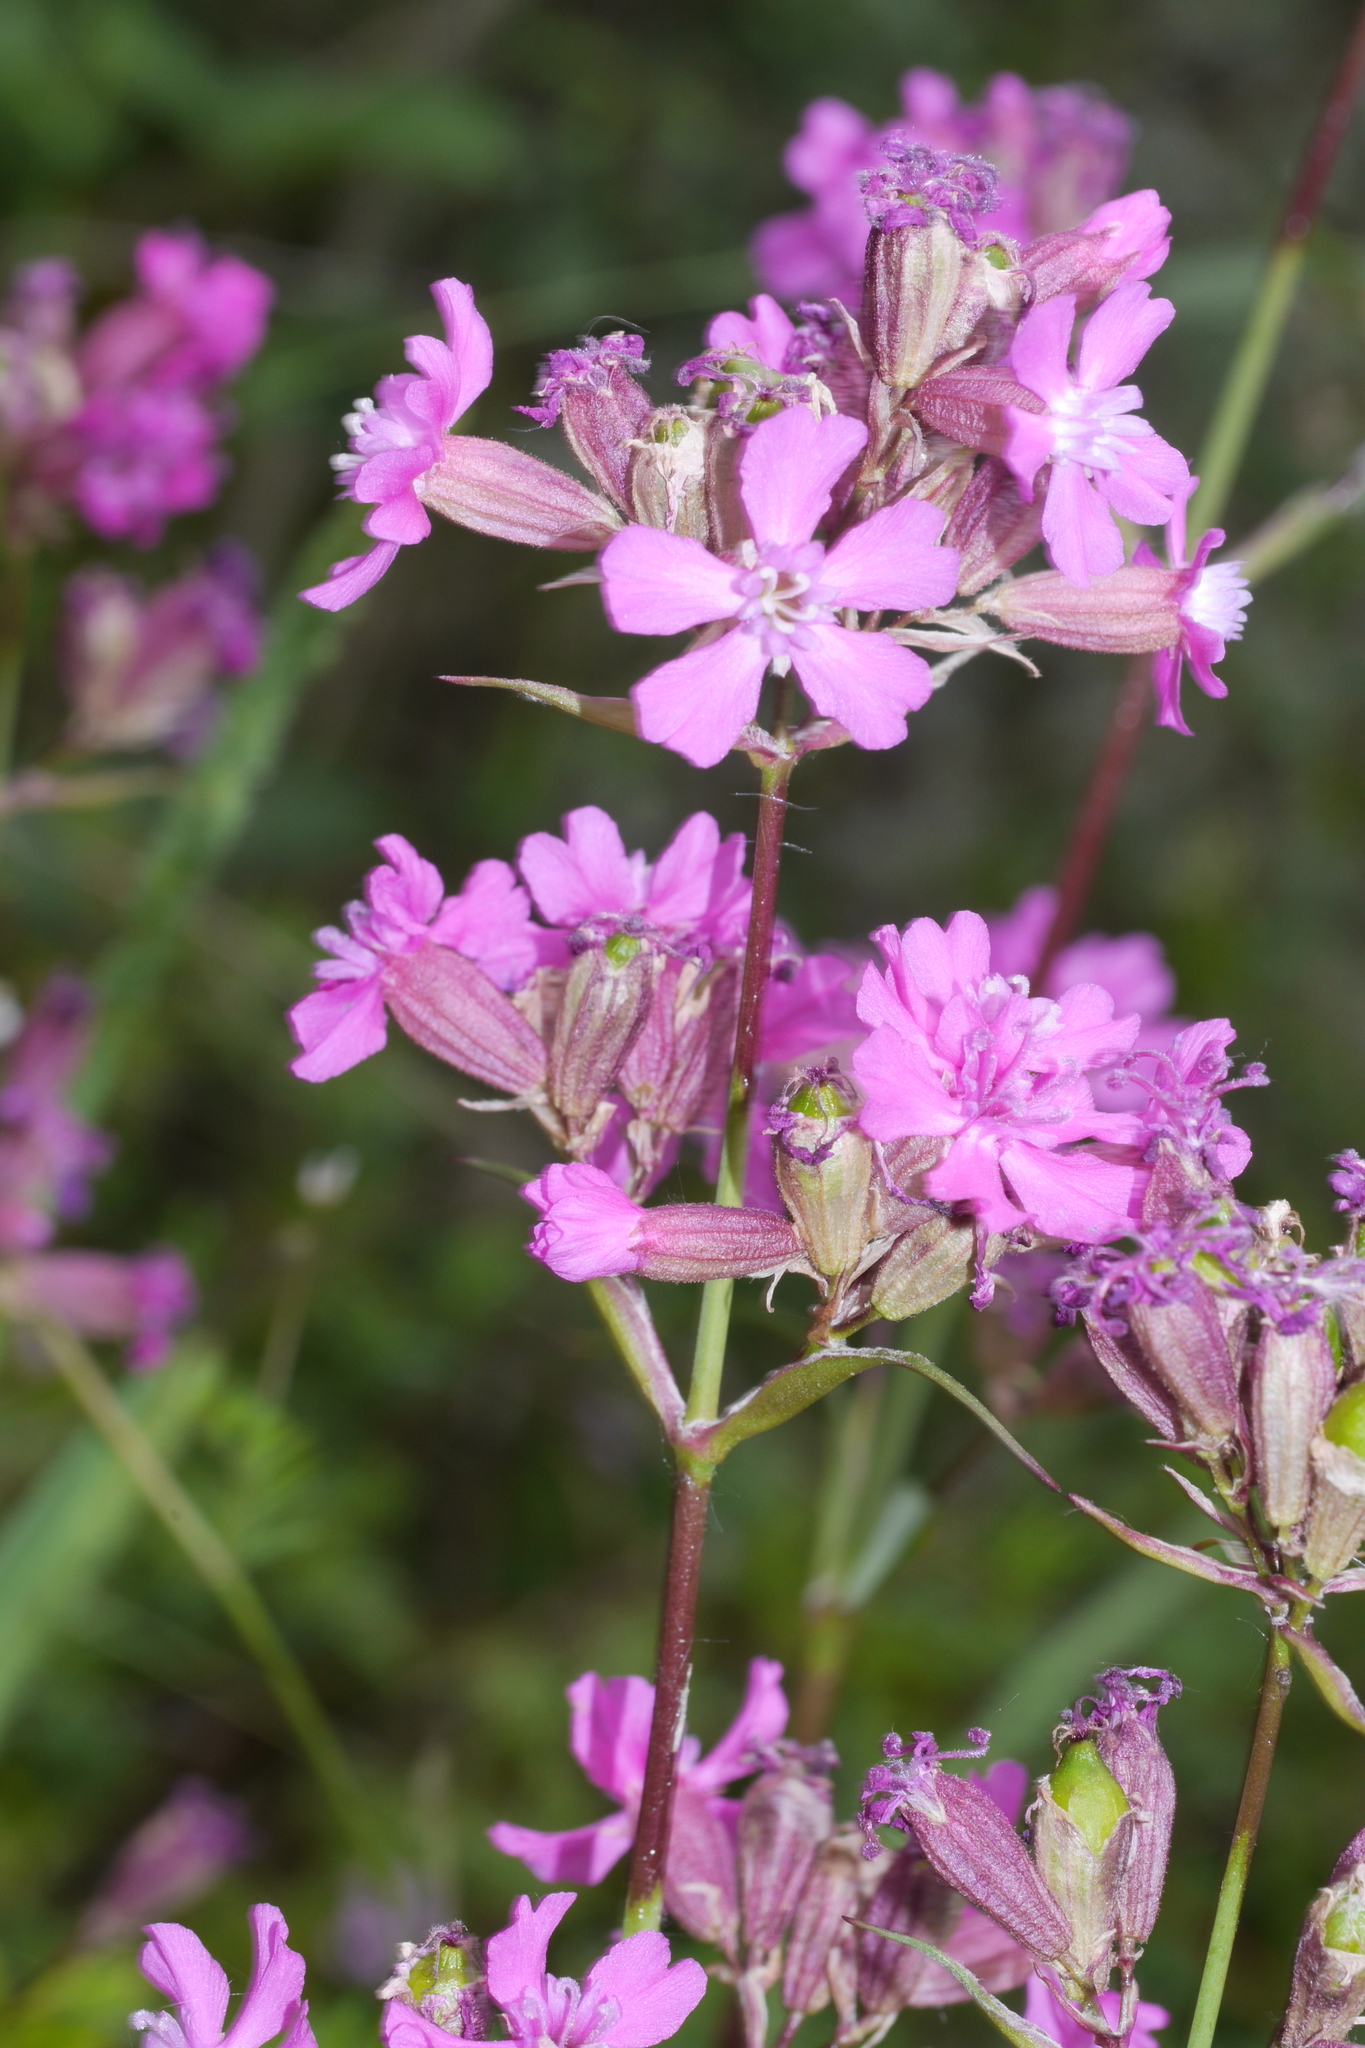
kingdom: Plantae
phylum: Tracheophyta
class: Magnoliopsida
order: Caryophyllales
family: Caryophyllaceae
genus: Viscaria
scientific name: Viscaria vulgaris
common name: Clammy campion
